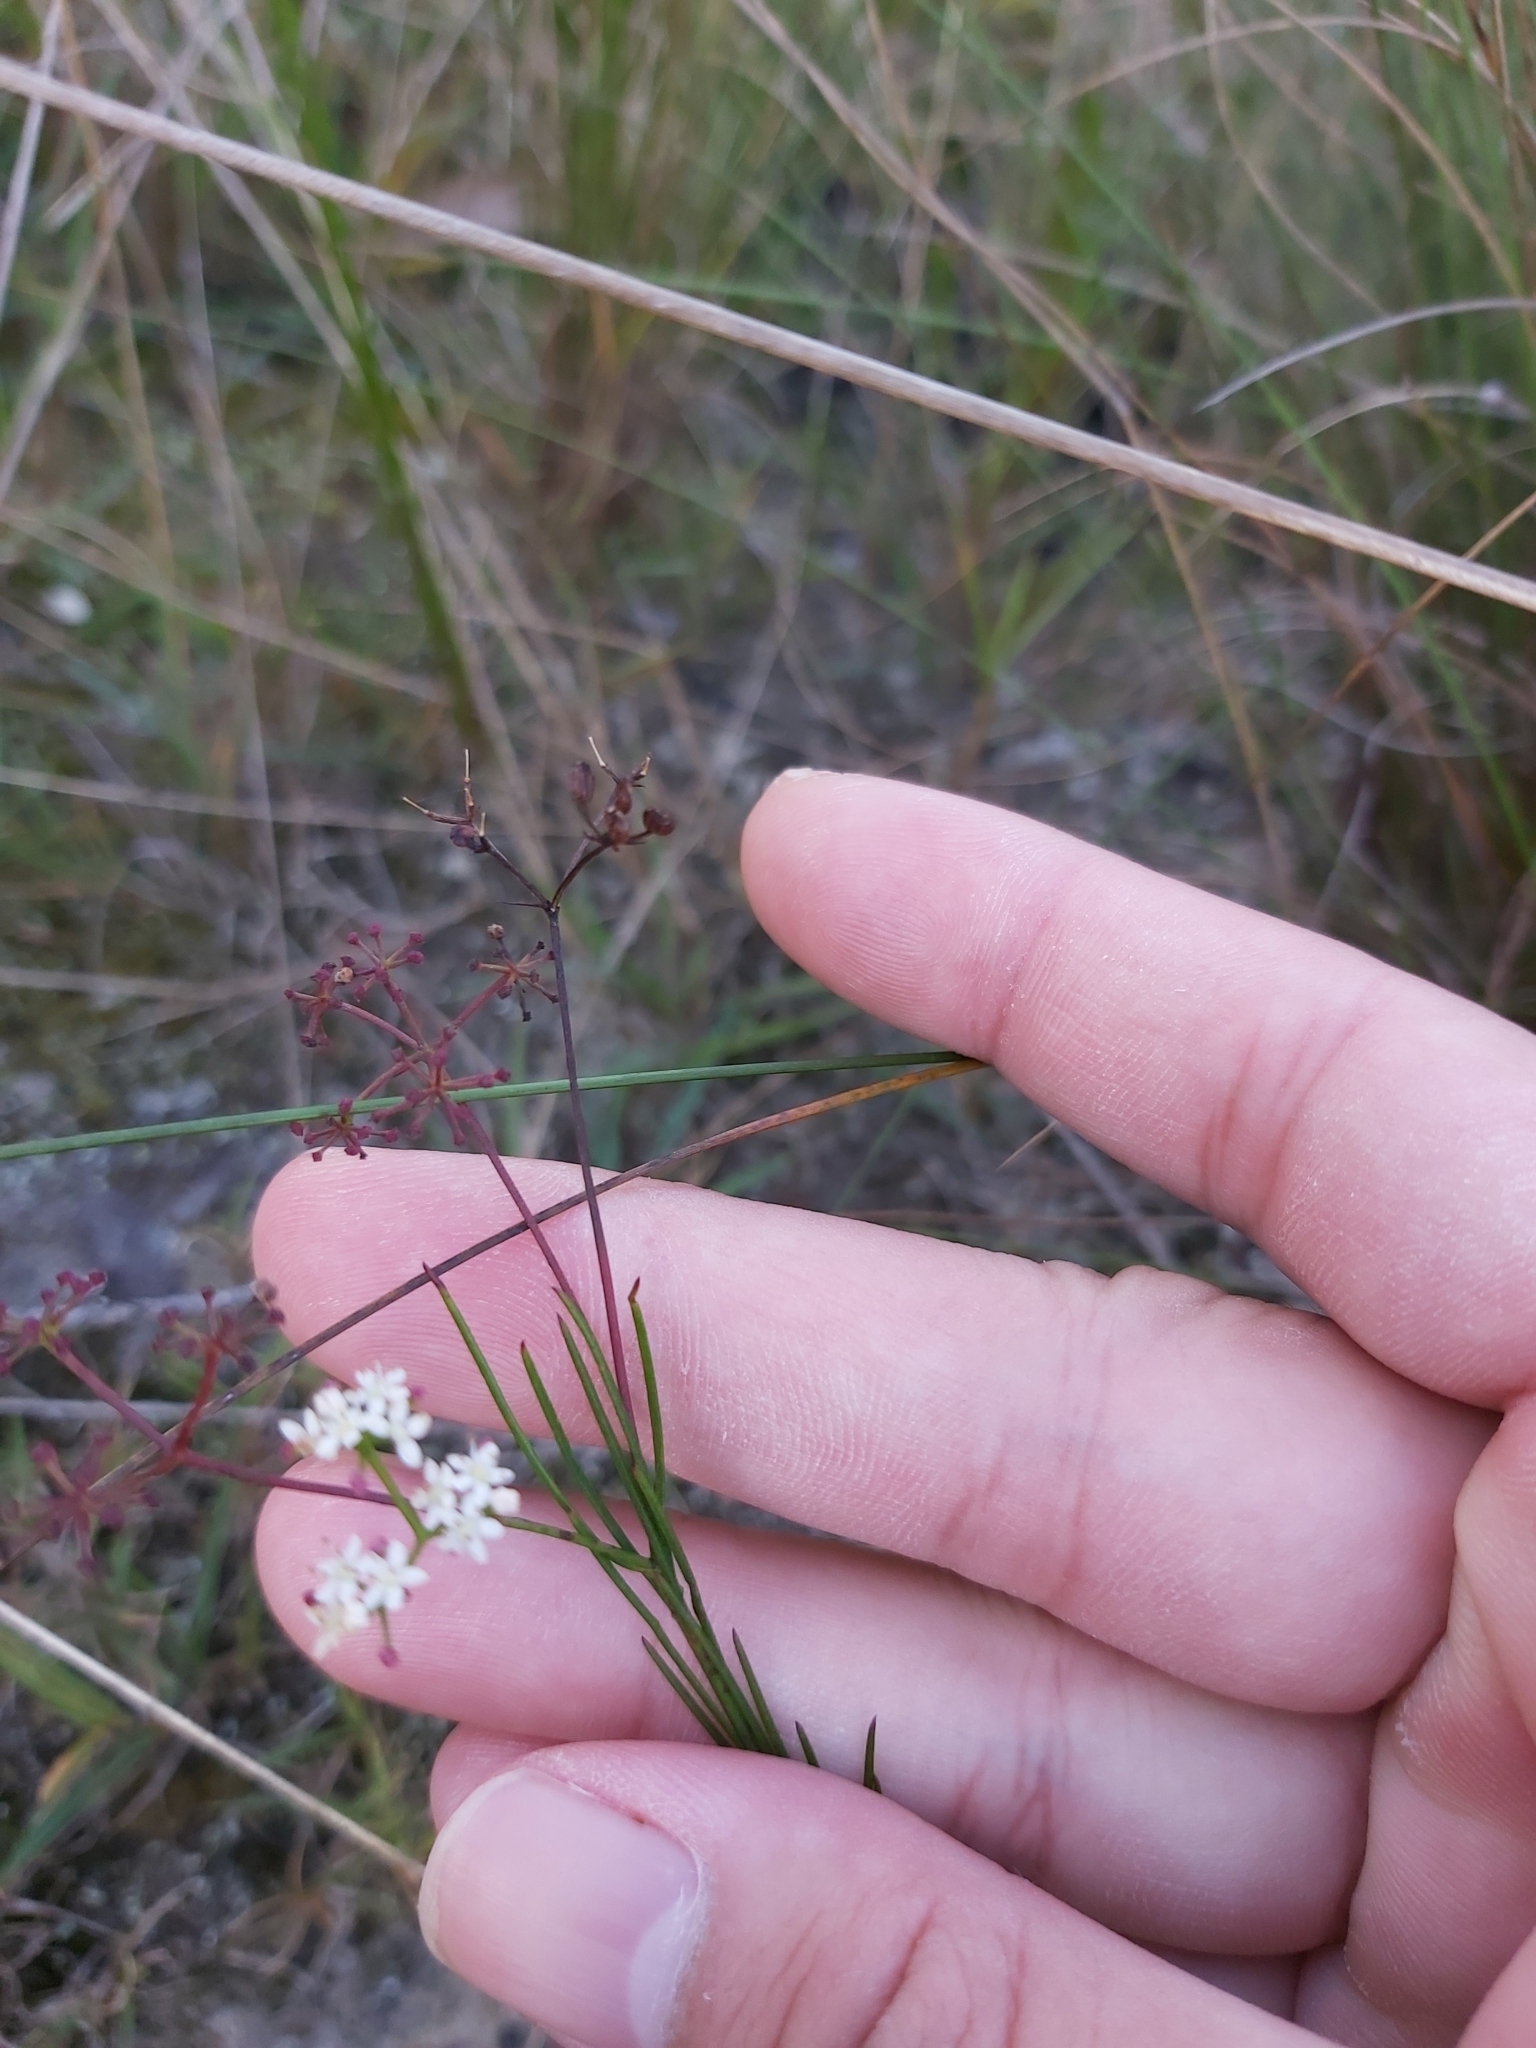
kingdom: Plantae
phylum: Tracheophyta
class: Magnoliopsida
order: Apiales
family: Apiaceae
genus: Platysace
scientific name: Platysace linearifolia
